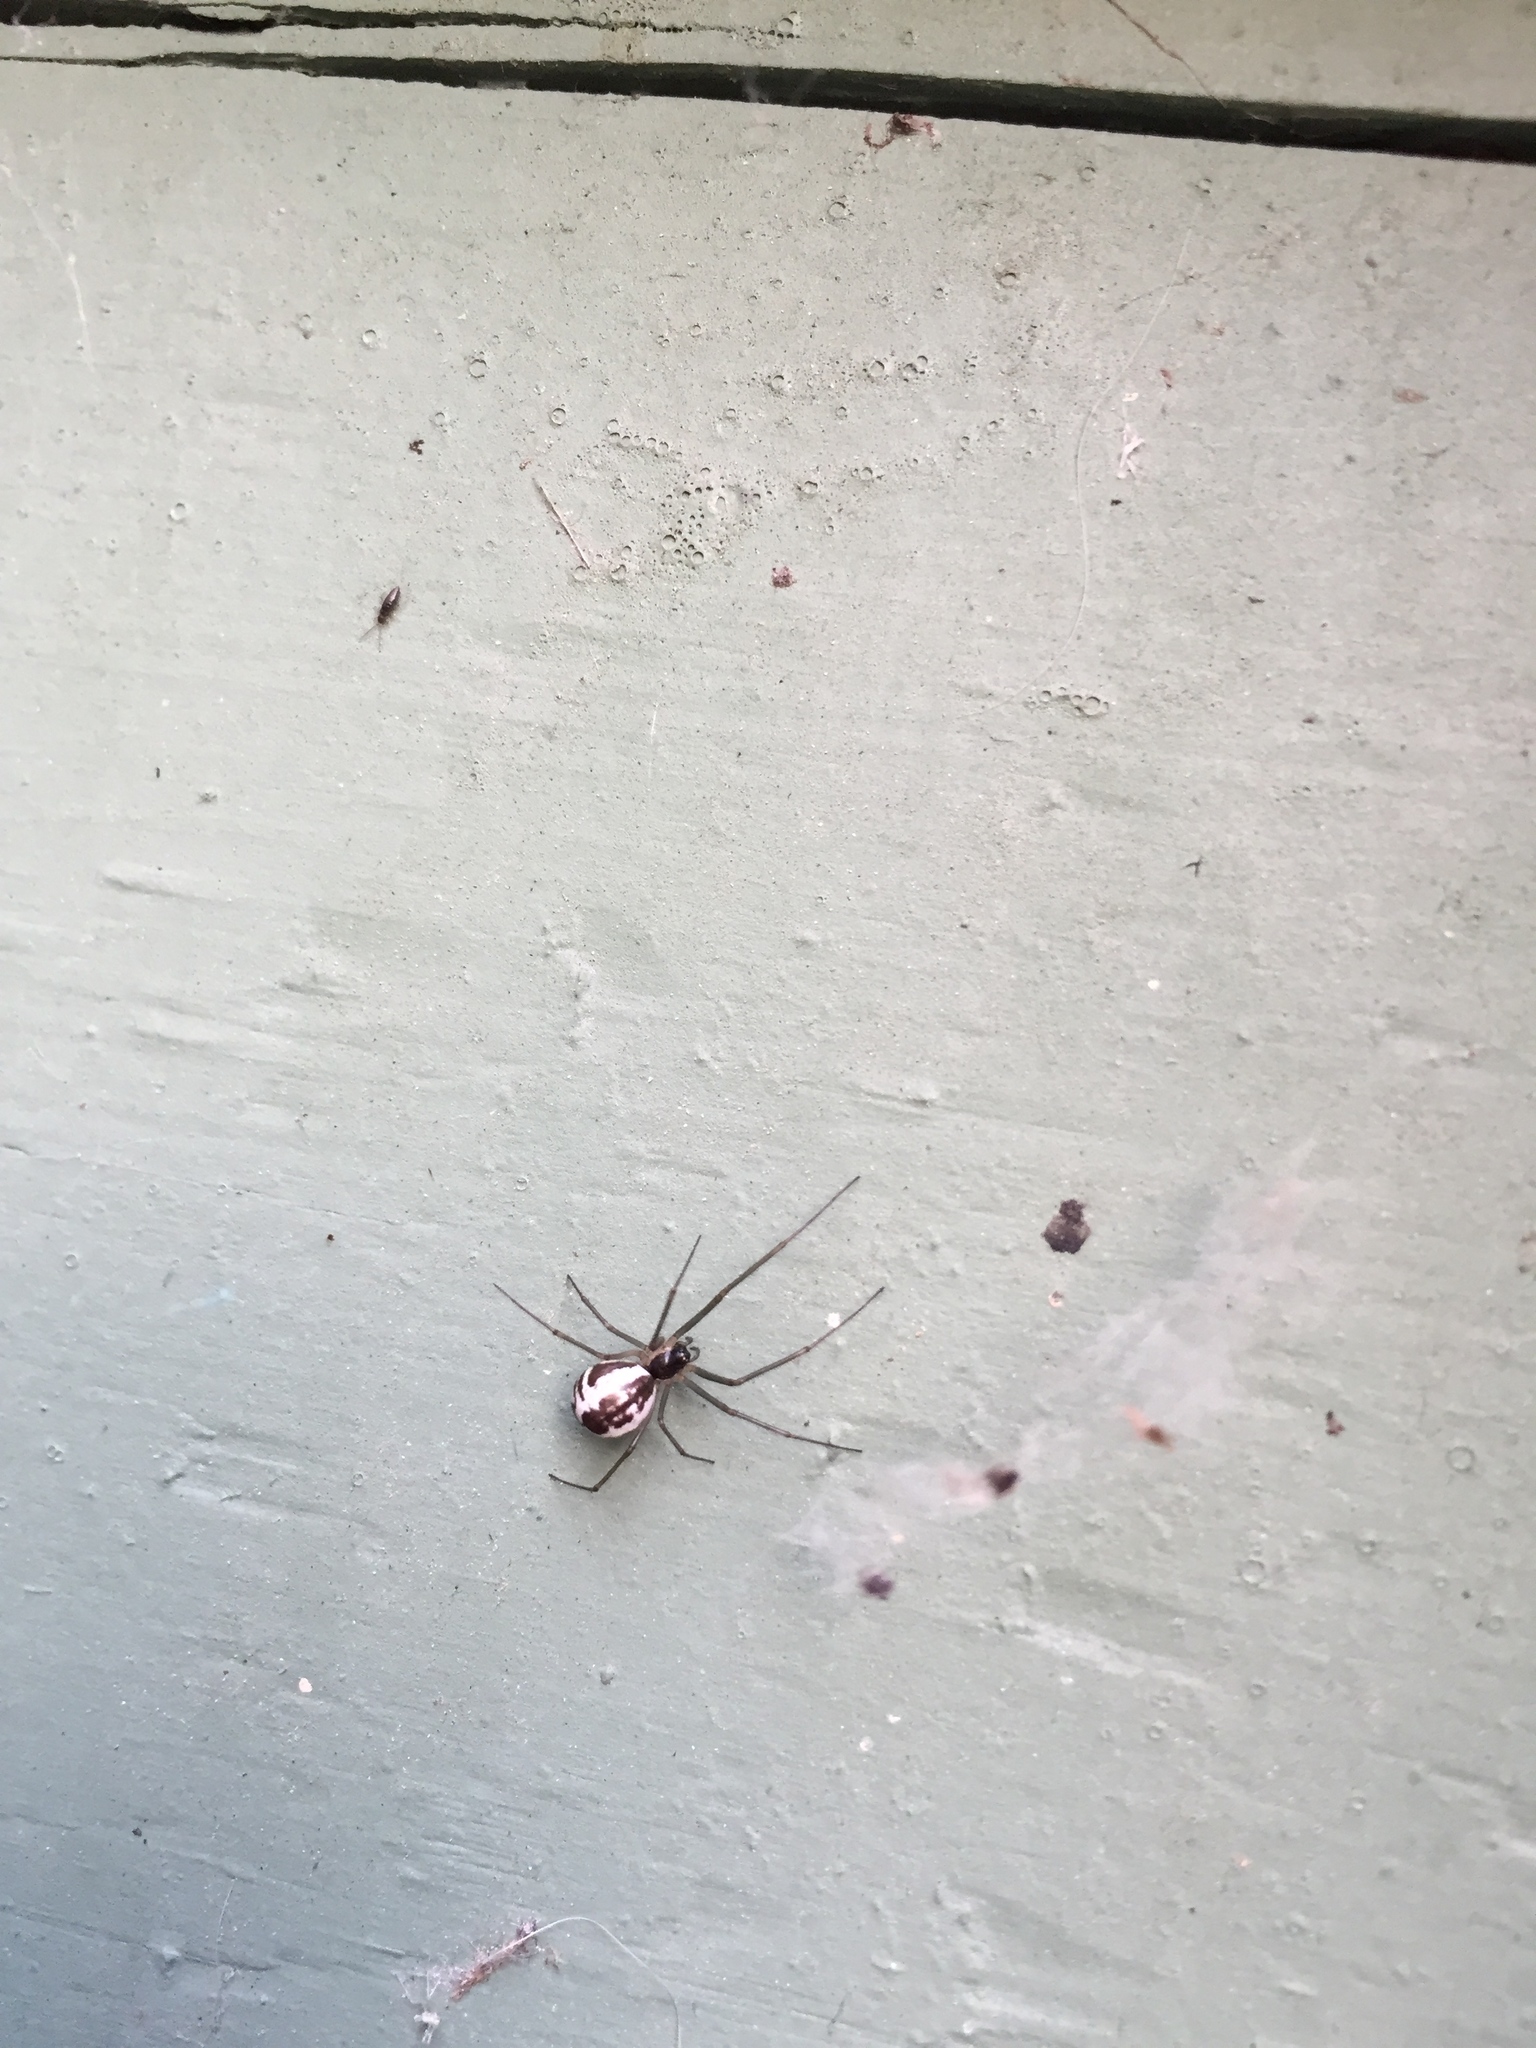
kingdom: Animalia
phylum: Arthropoda
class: Arachnida
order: Araneae
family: Linyphiidae
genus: Neriene
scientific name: Neriene radiata
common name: Filmy dome spider
